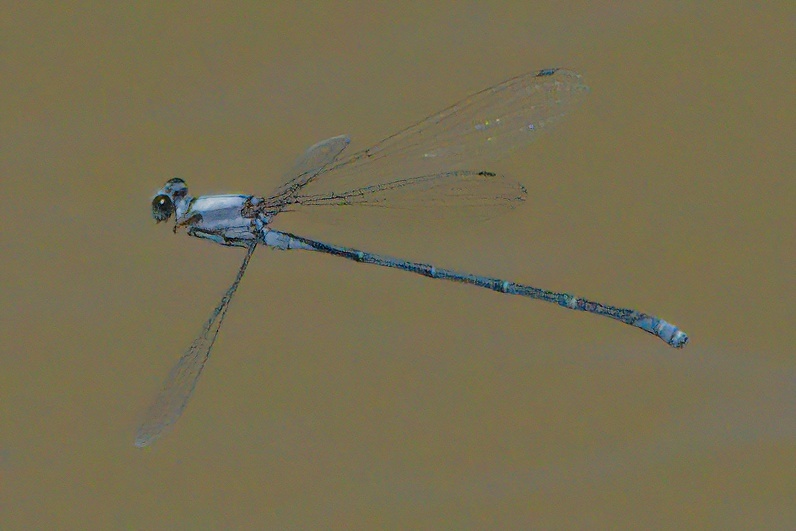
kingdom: Animalia
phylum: Arthropoda
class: Insecta
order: Odonata
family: Coenagrionidae
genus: Argia
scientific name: Argia moesta
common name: Powdered dancer
